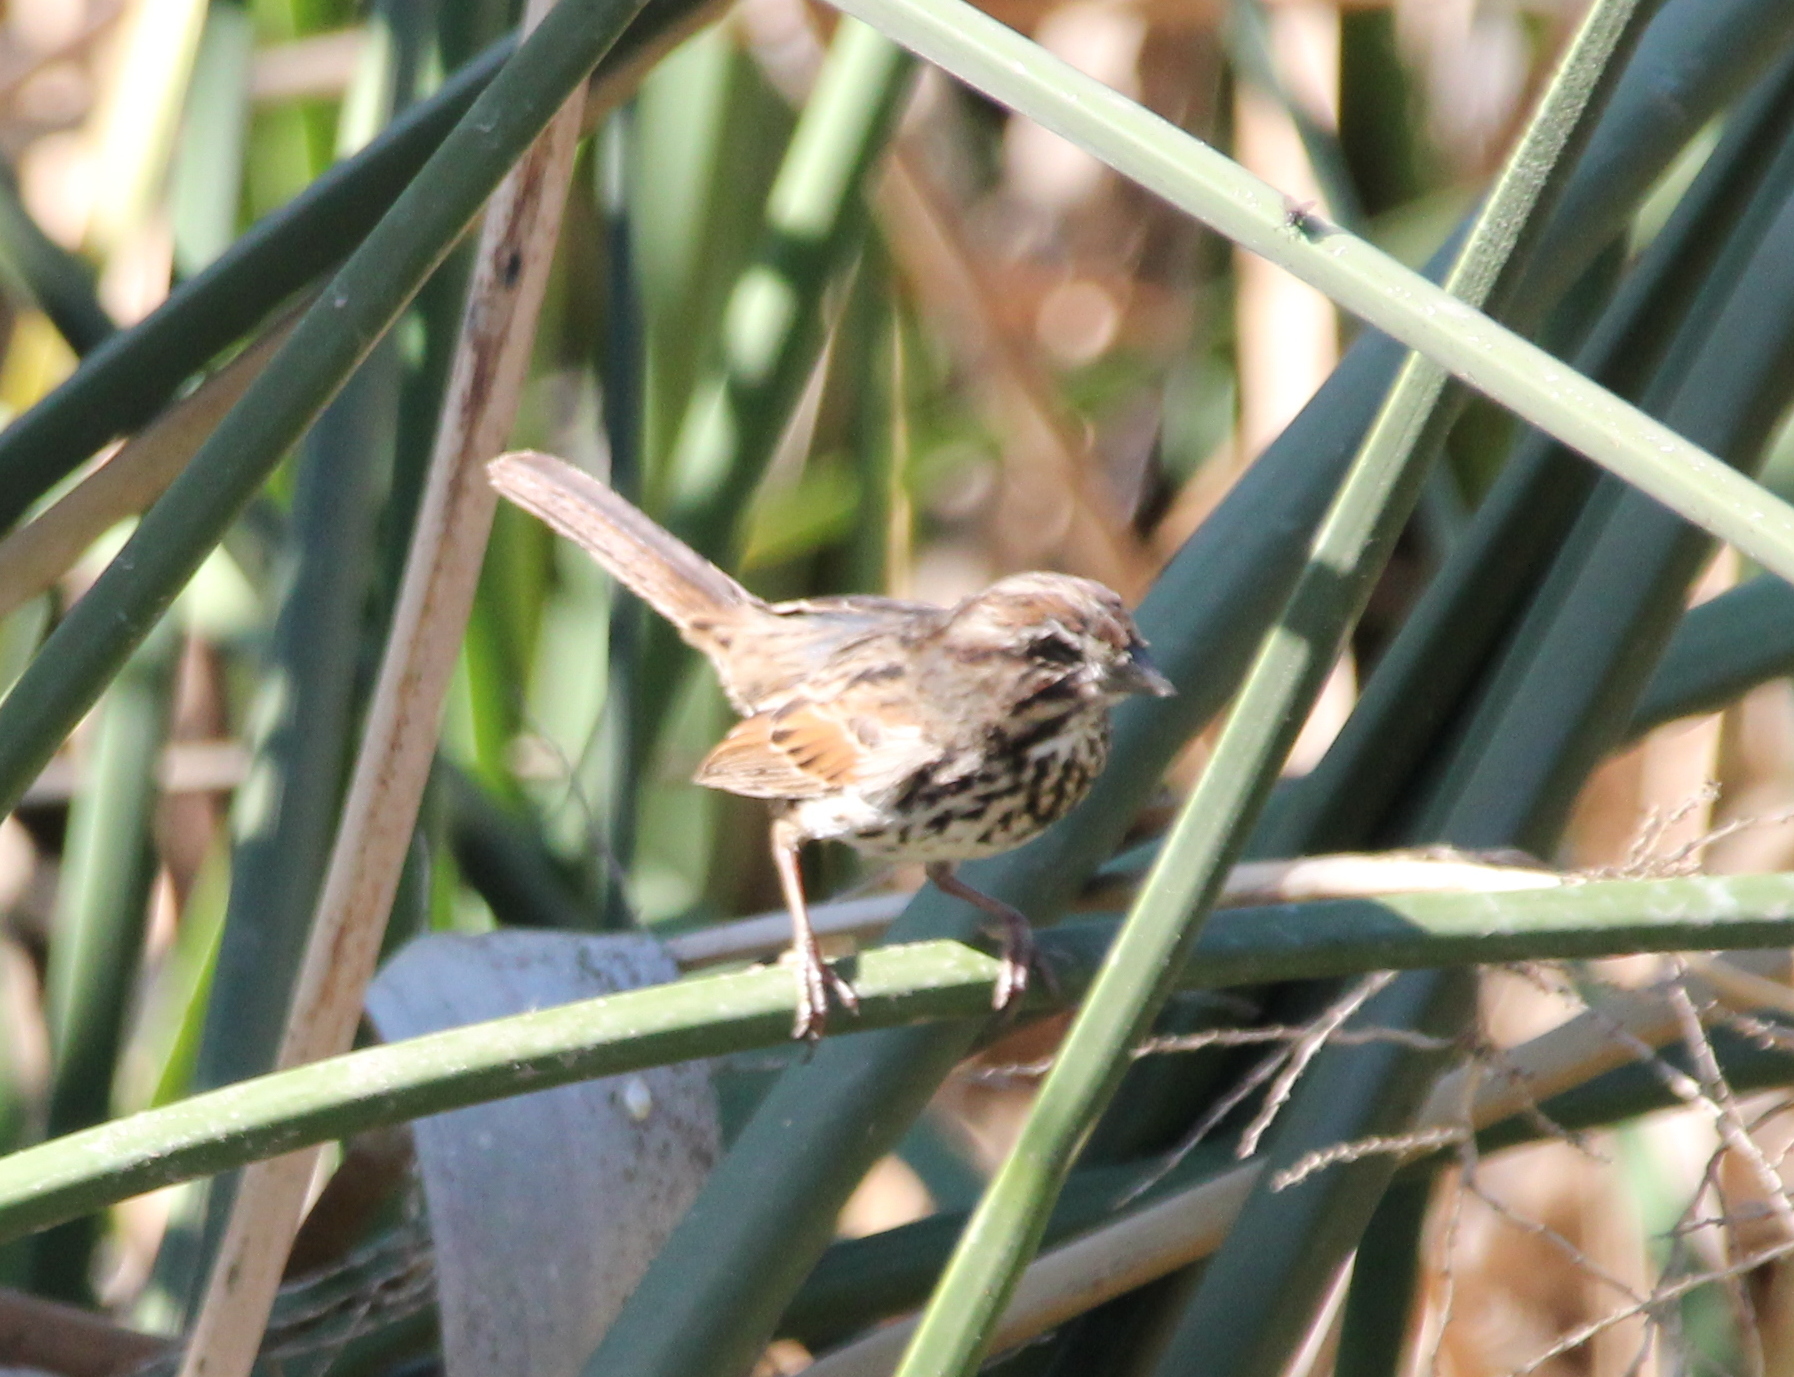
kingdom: Animalia
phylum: Chordata
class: Aves
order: Passeriformes
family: Passerellidae
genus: Melospiza
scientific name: Melospiza melodia
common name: Song sparrow
